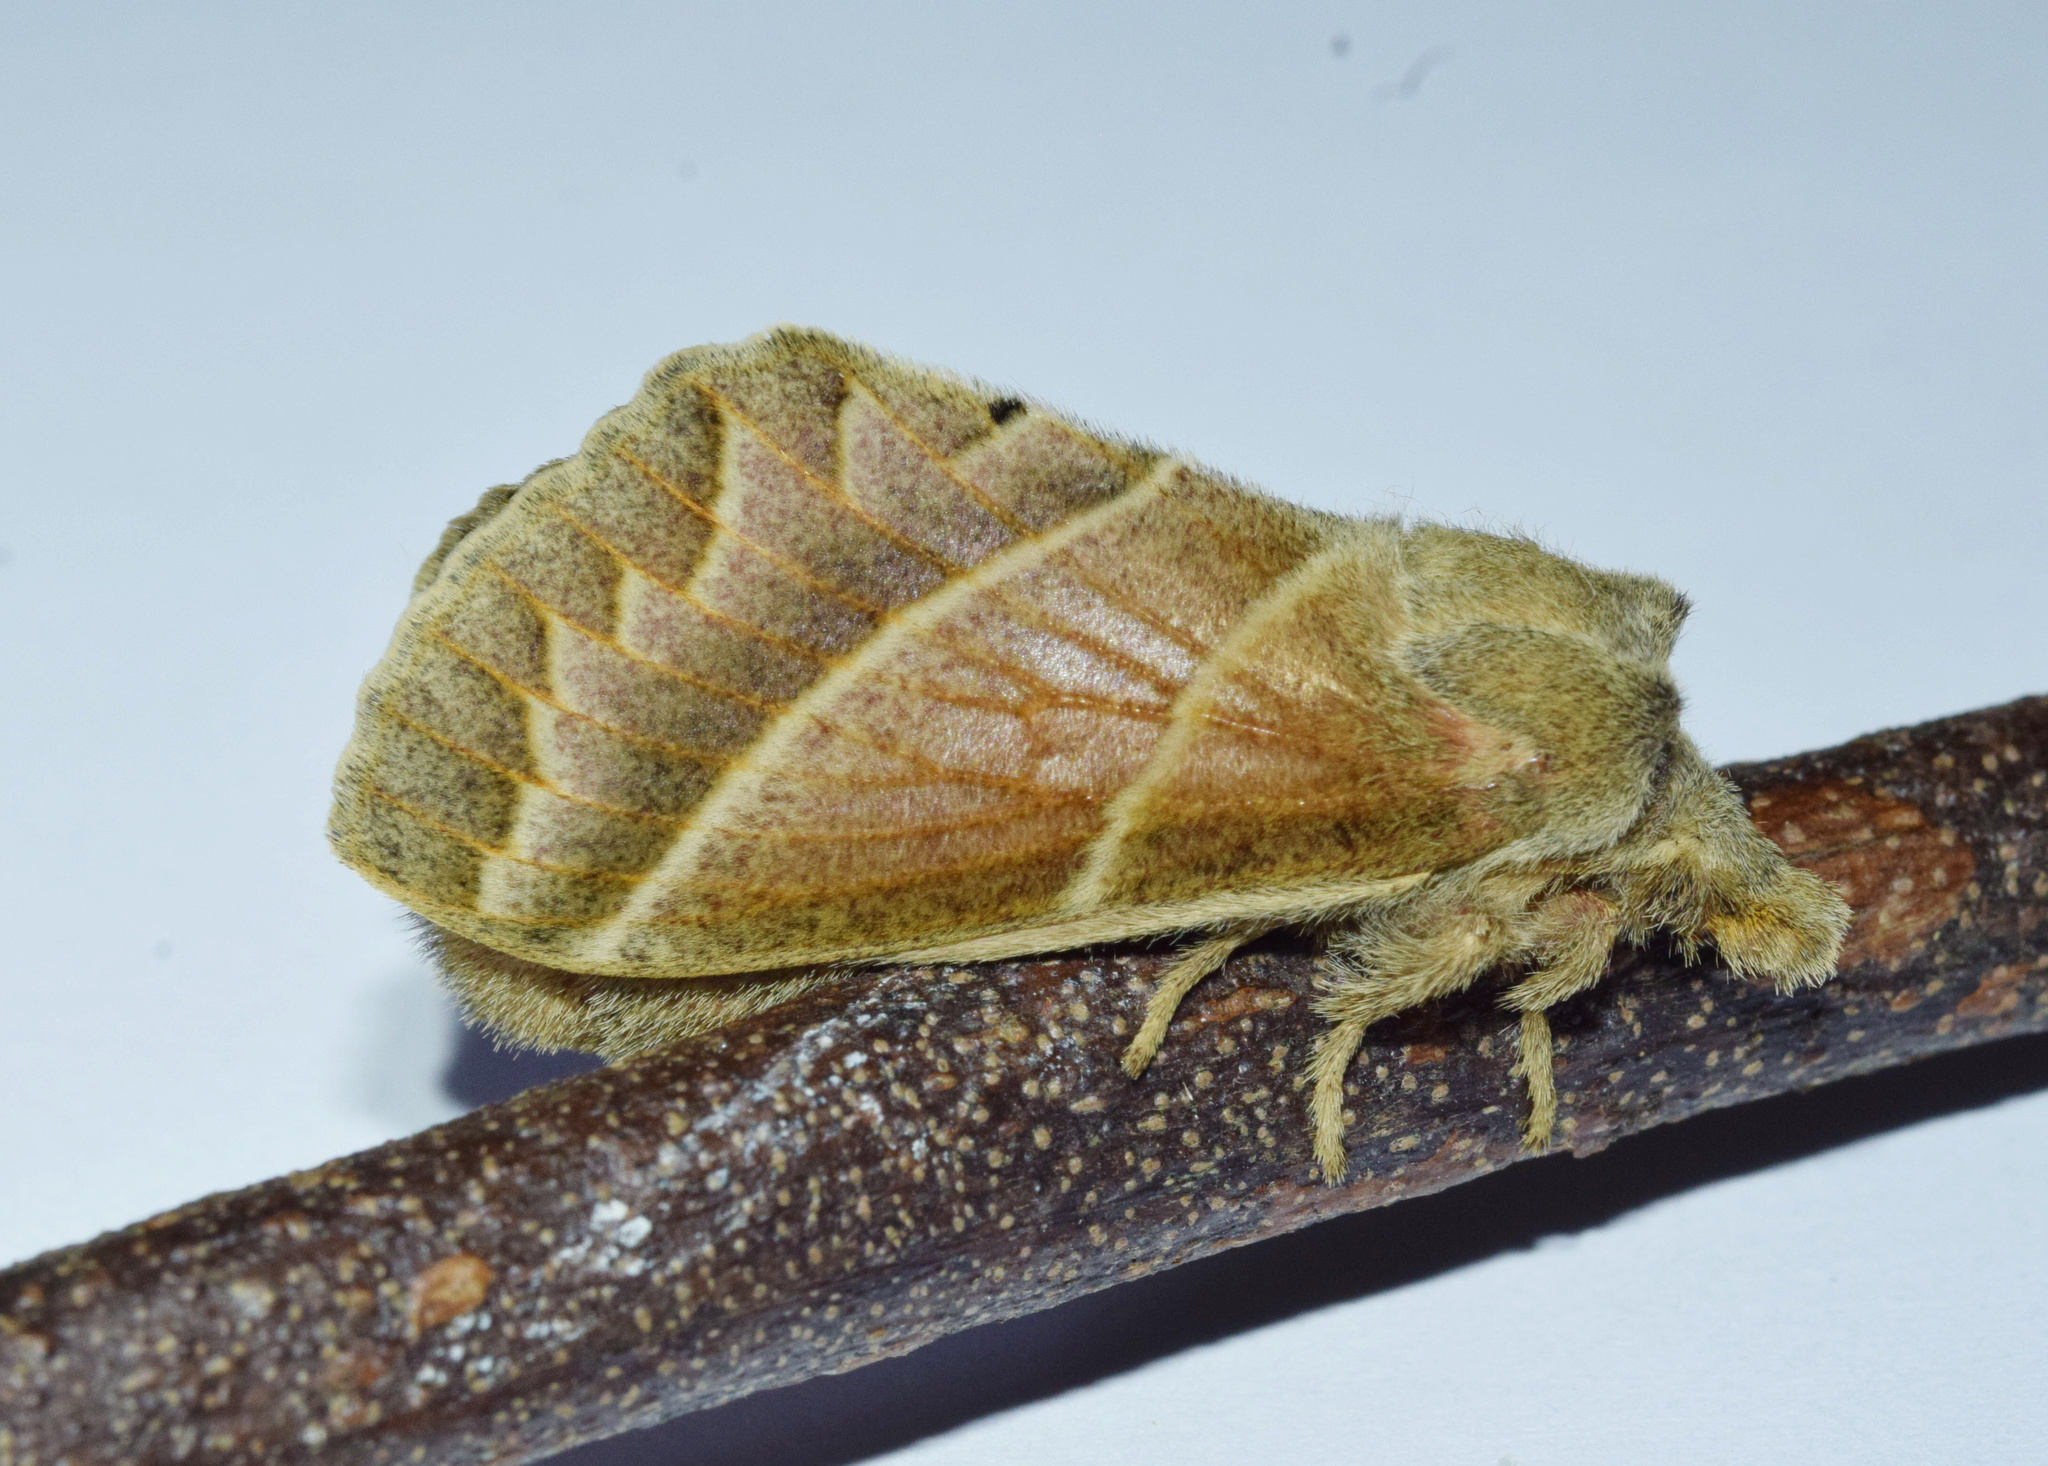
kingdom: Animalia
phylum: Arthropoda
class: Insecta
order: Lepidoptera
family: Lasiocampidae
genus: Bombycopsis
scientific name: Bombycopsis bipars
